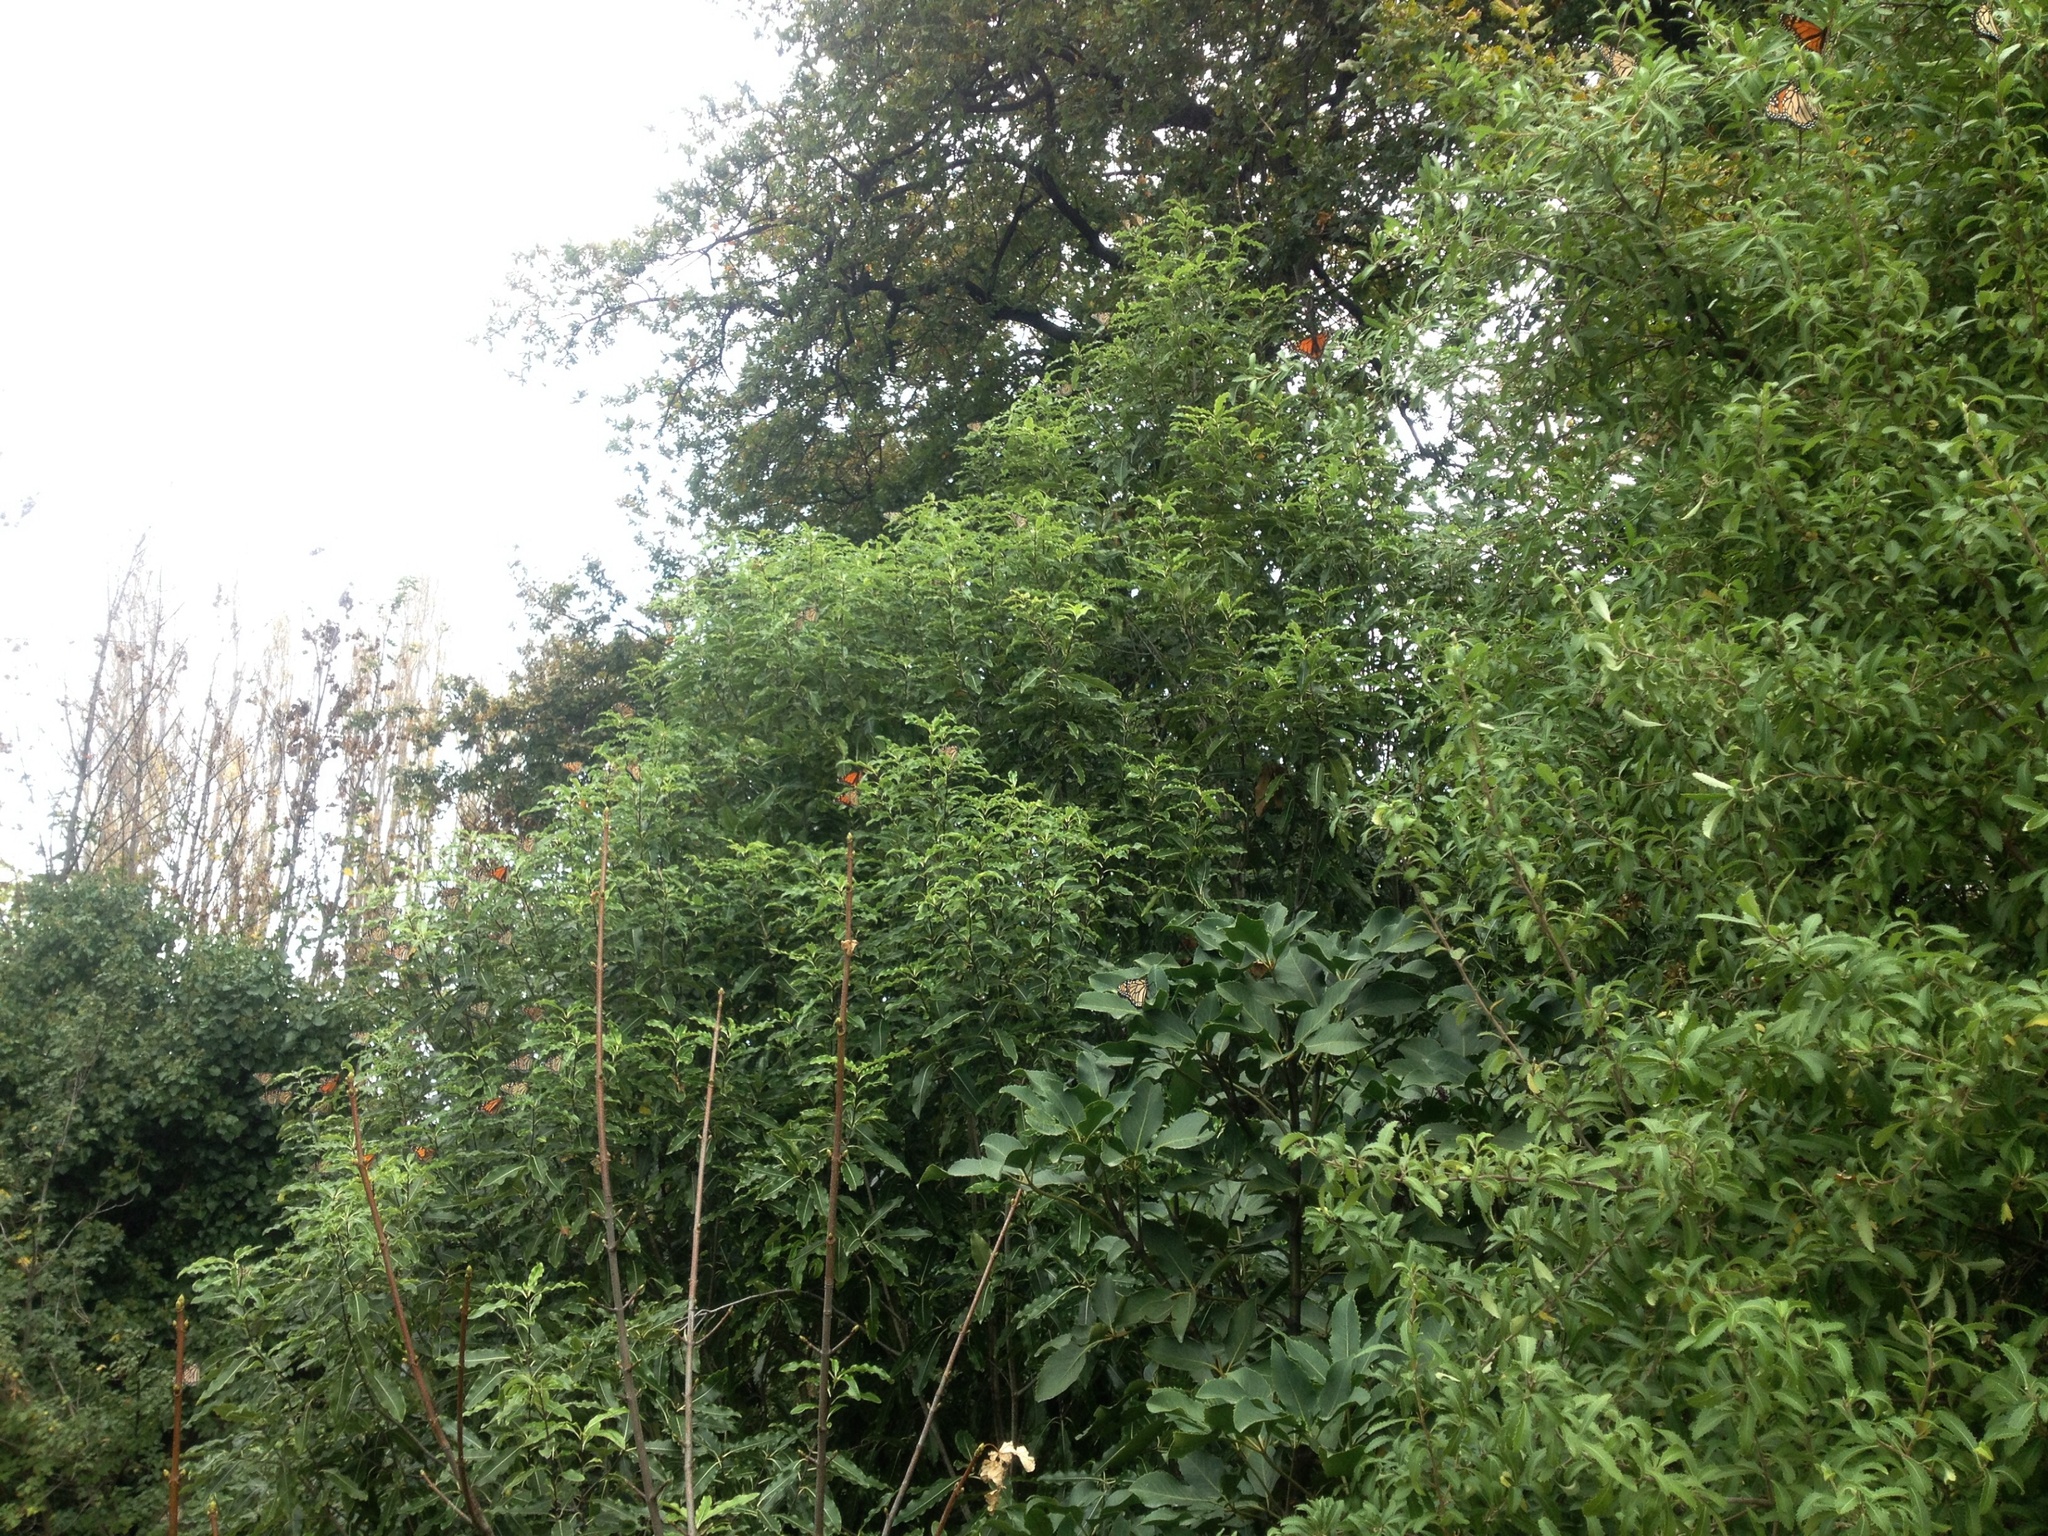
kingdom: Animalia
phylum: Arthropoda
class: Insecta
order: Lepidoptera
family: Nymphalidae
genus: Danaus
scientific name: Danaus plexippus
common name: Monarch
